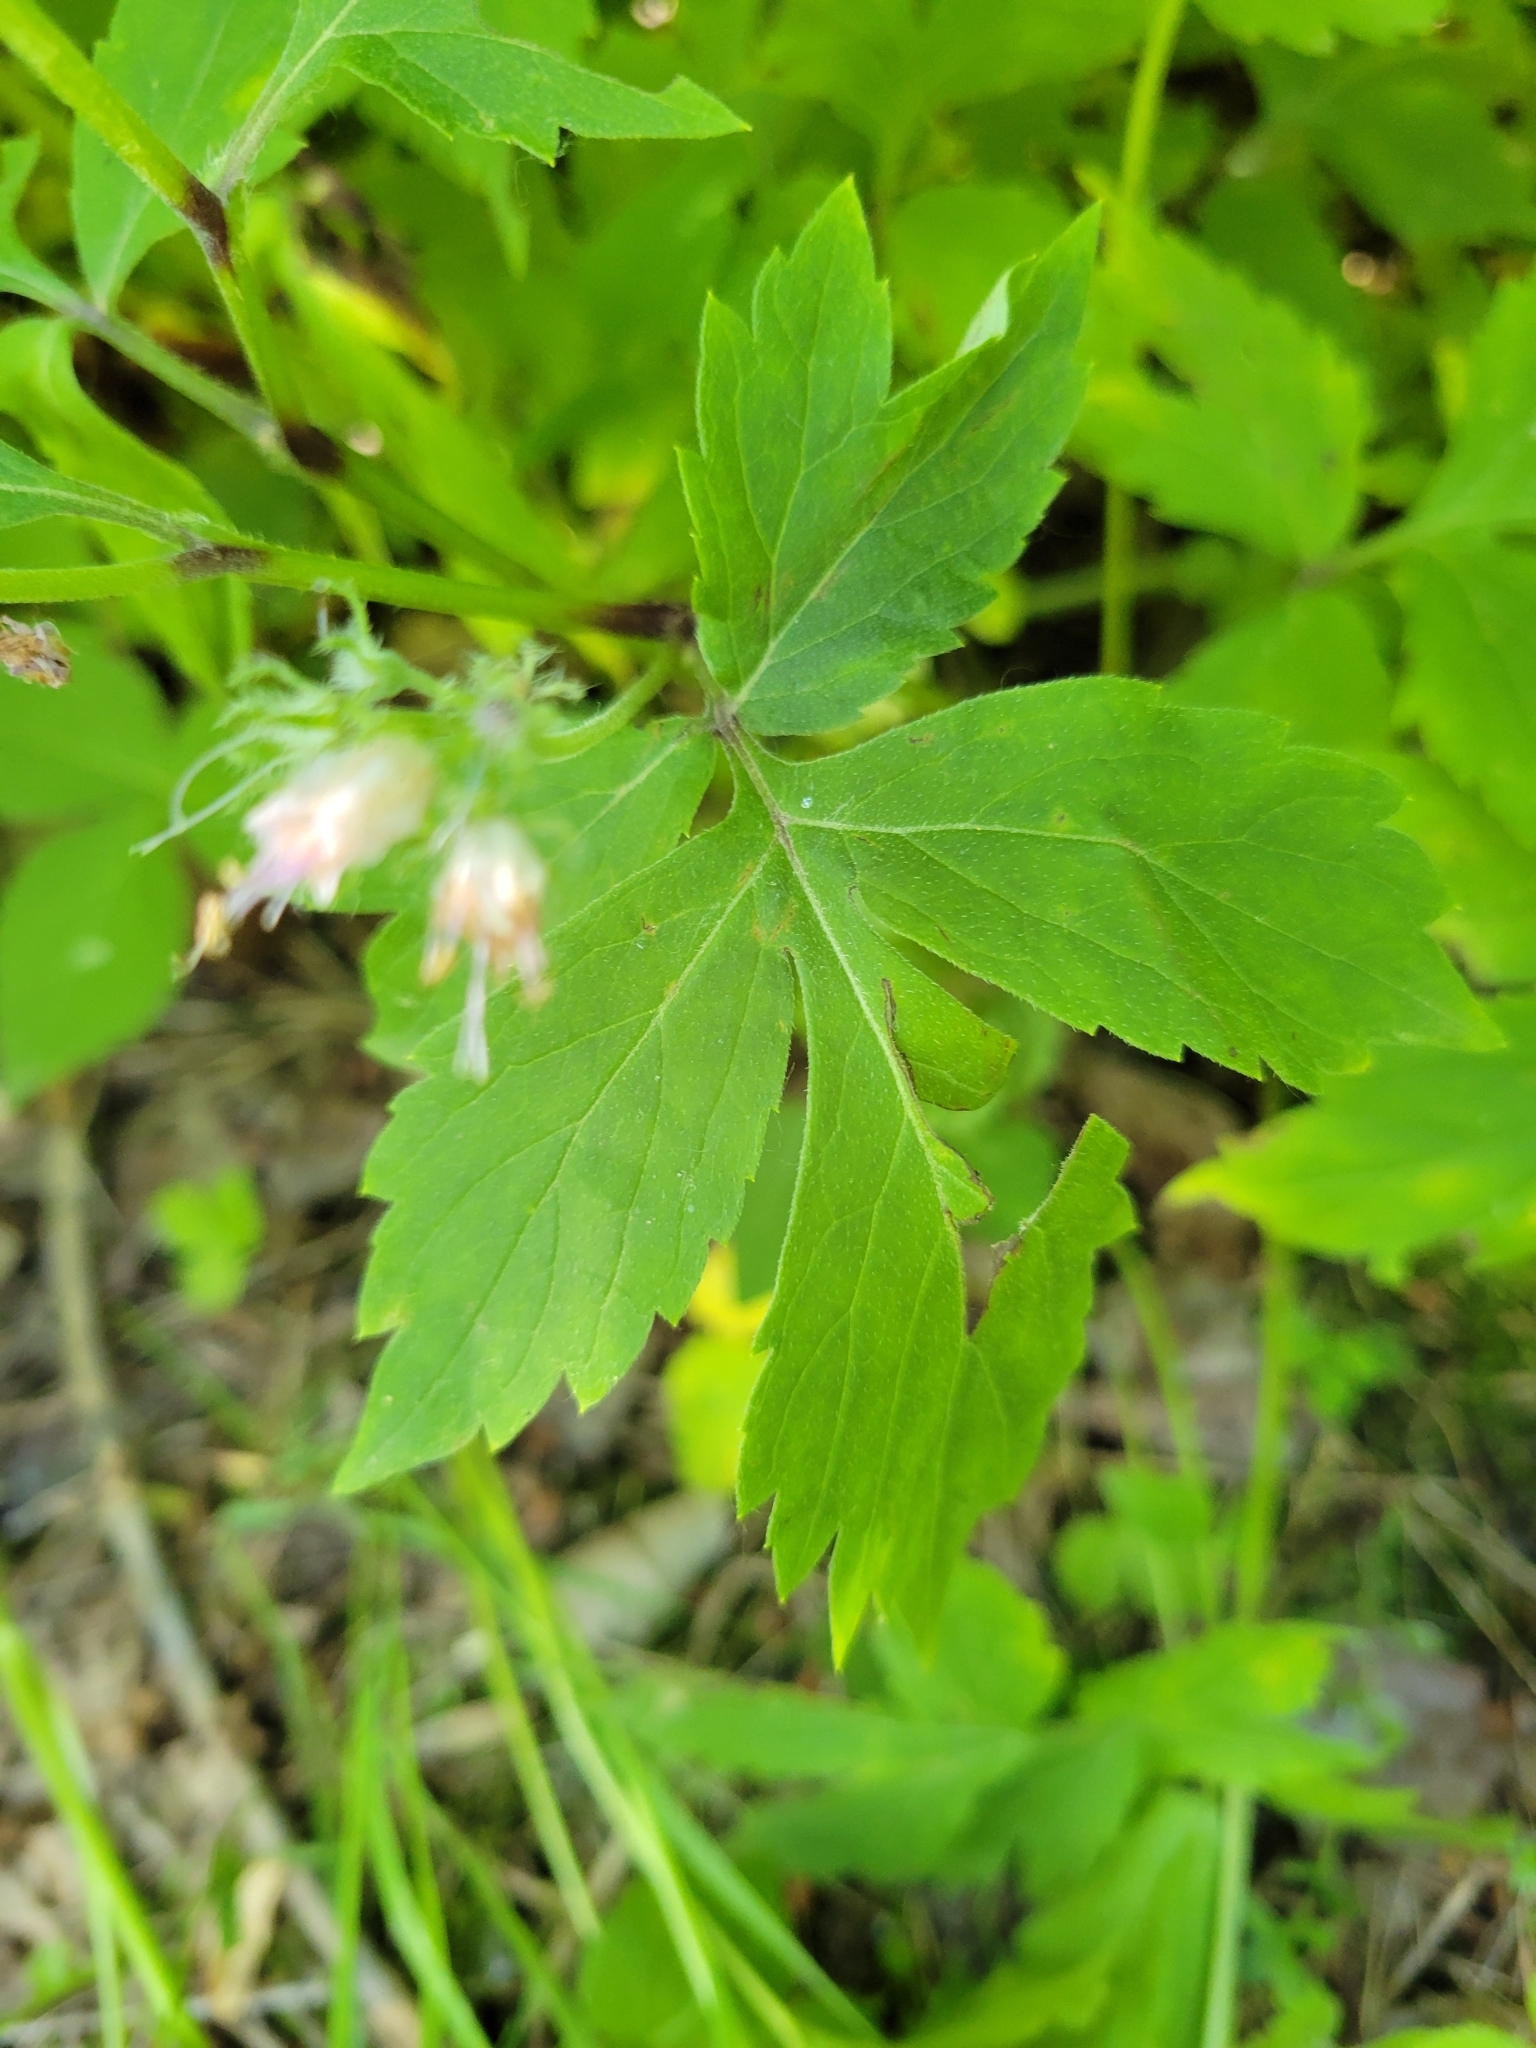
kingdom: Plantae
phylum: Tracheophyta
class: Magnoliopsida
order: Boraginales
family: Hydrophyllaceae
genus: Hydrophyllum
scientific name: Hydrophyllum virginianum
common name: Virginia waterleaf
